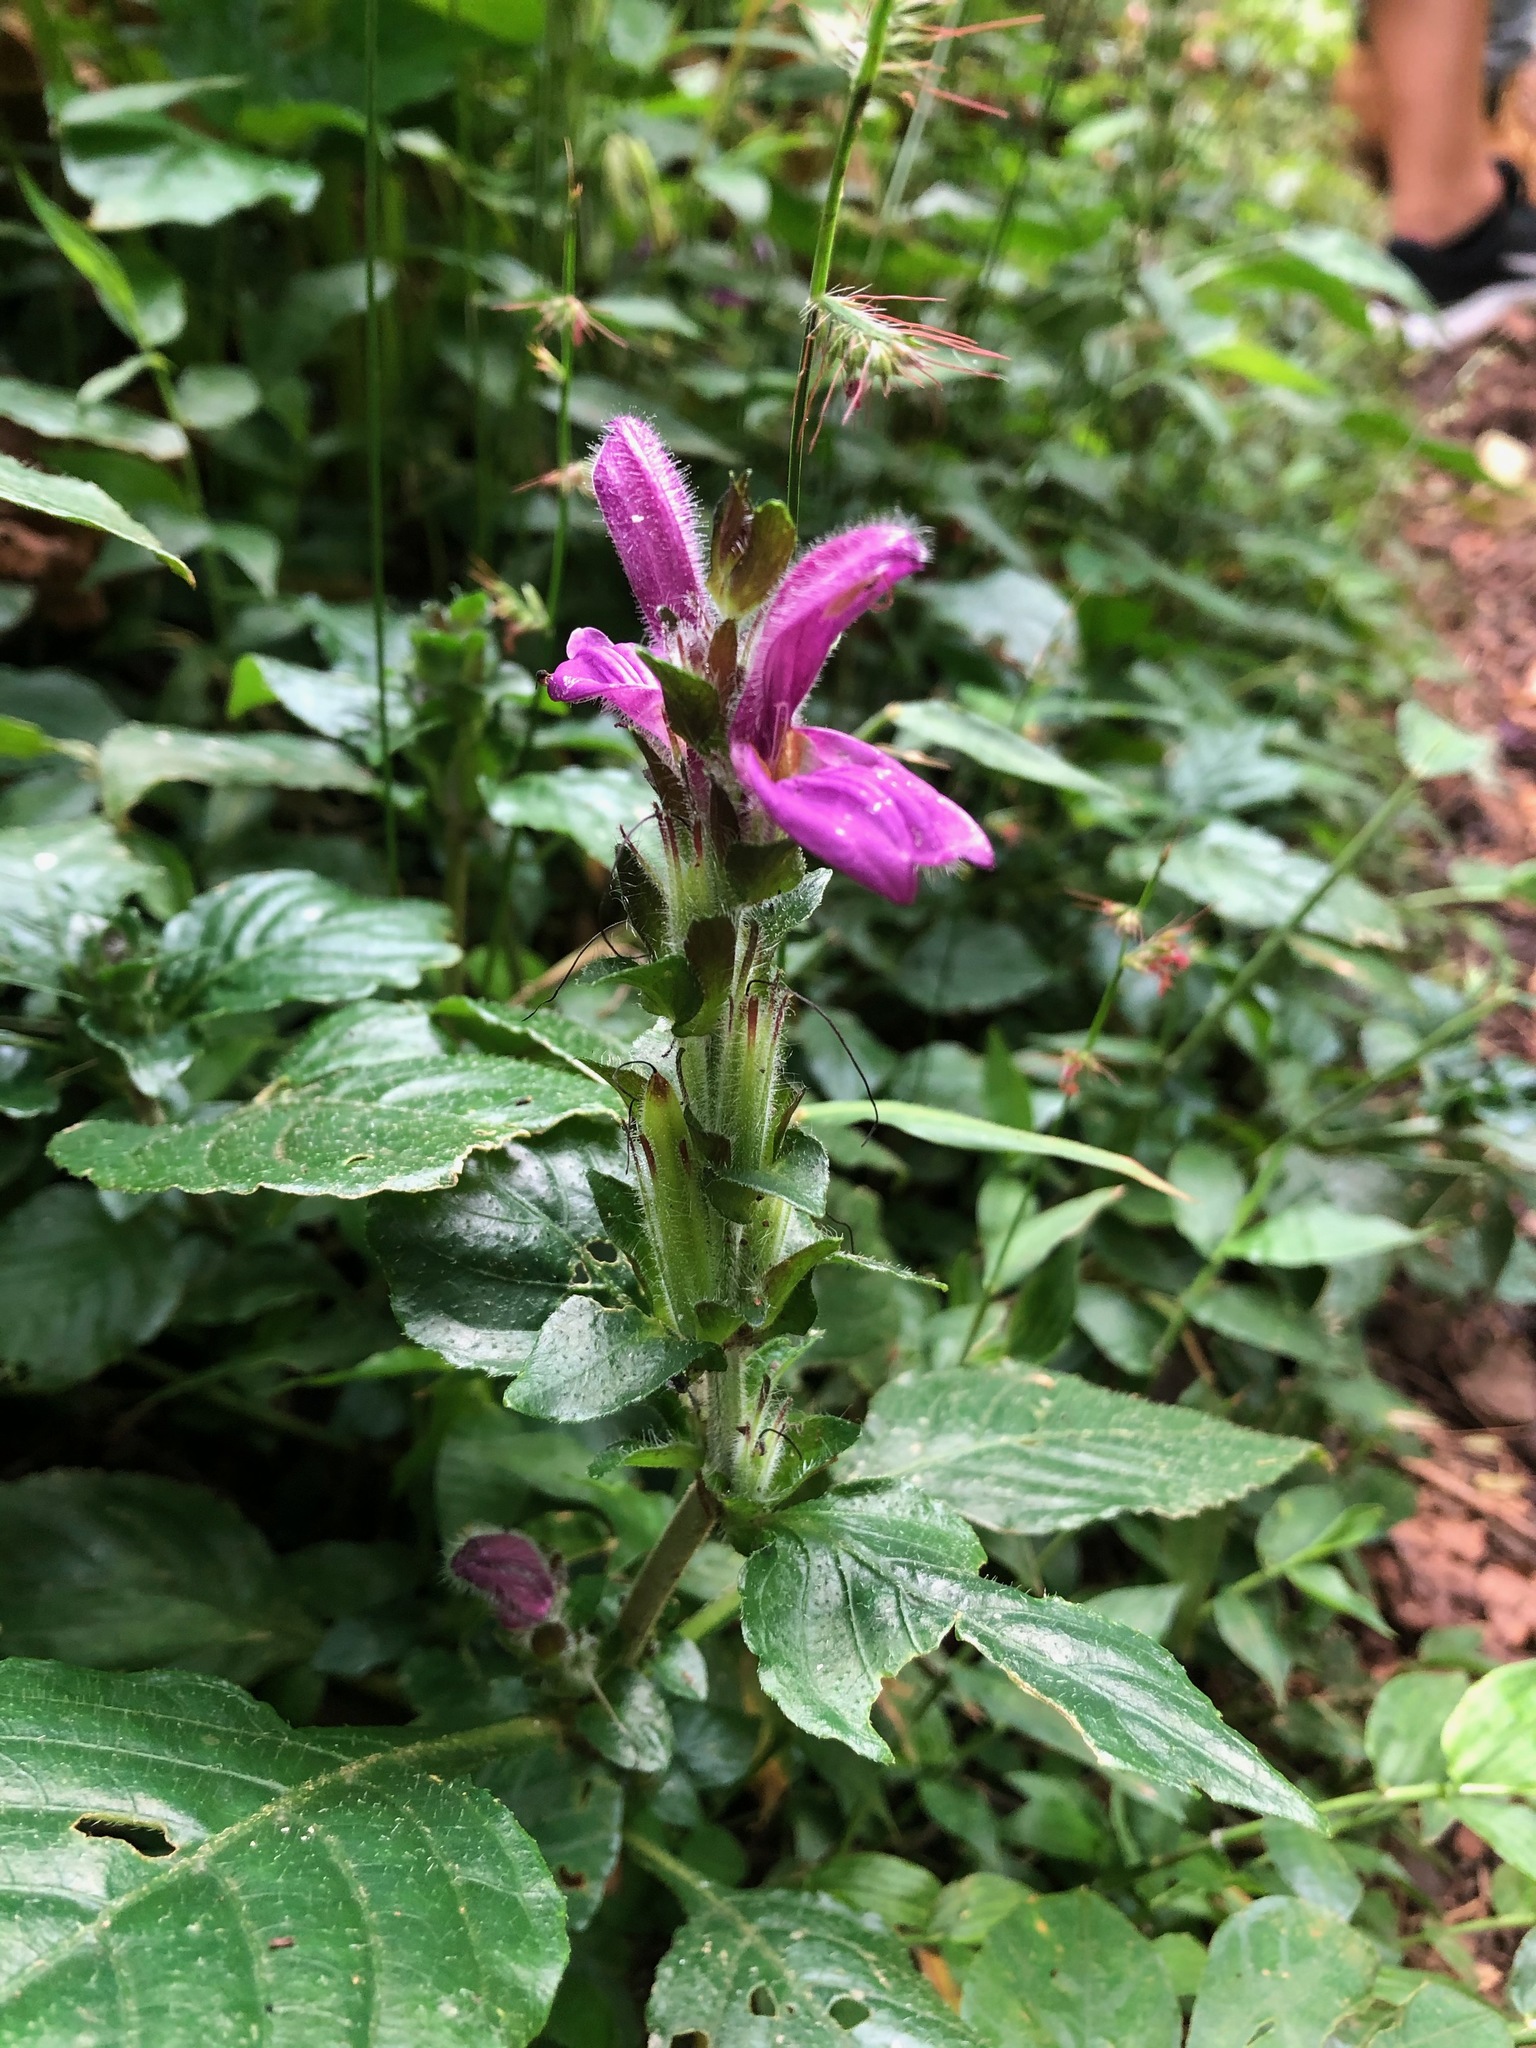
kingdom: Plantae
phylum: Tracheophyta
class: Magnoliopsida
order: Lamiales
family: Acanthaceae
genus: Brillantaisia
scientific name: Brillantaisia madagascariensis
